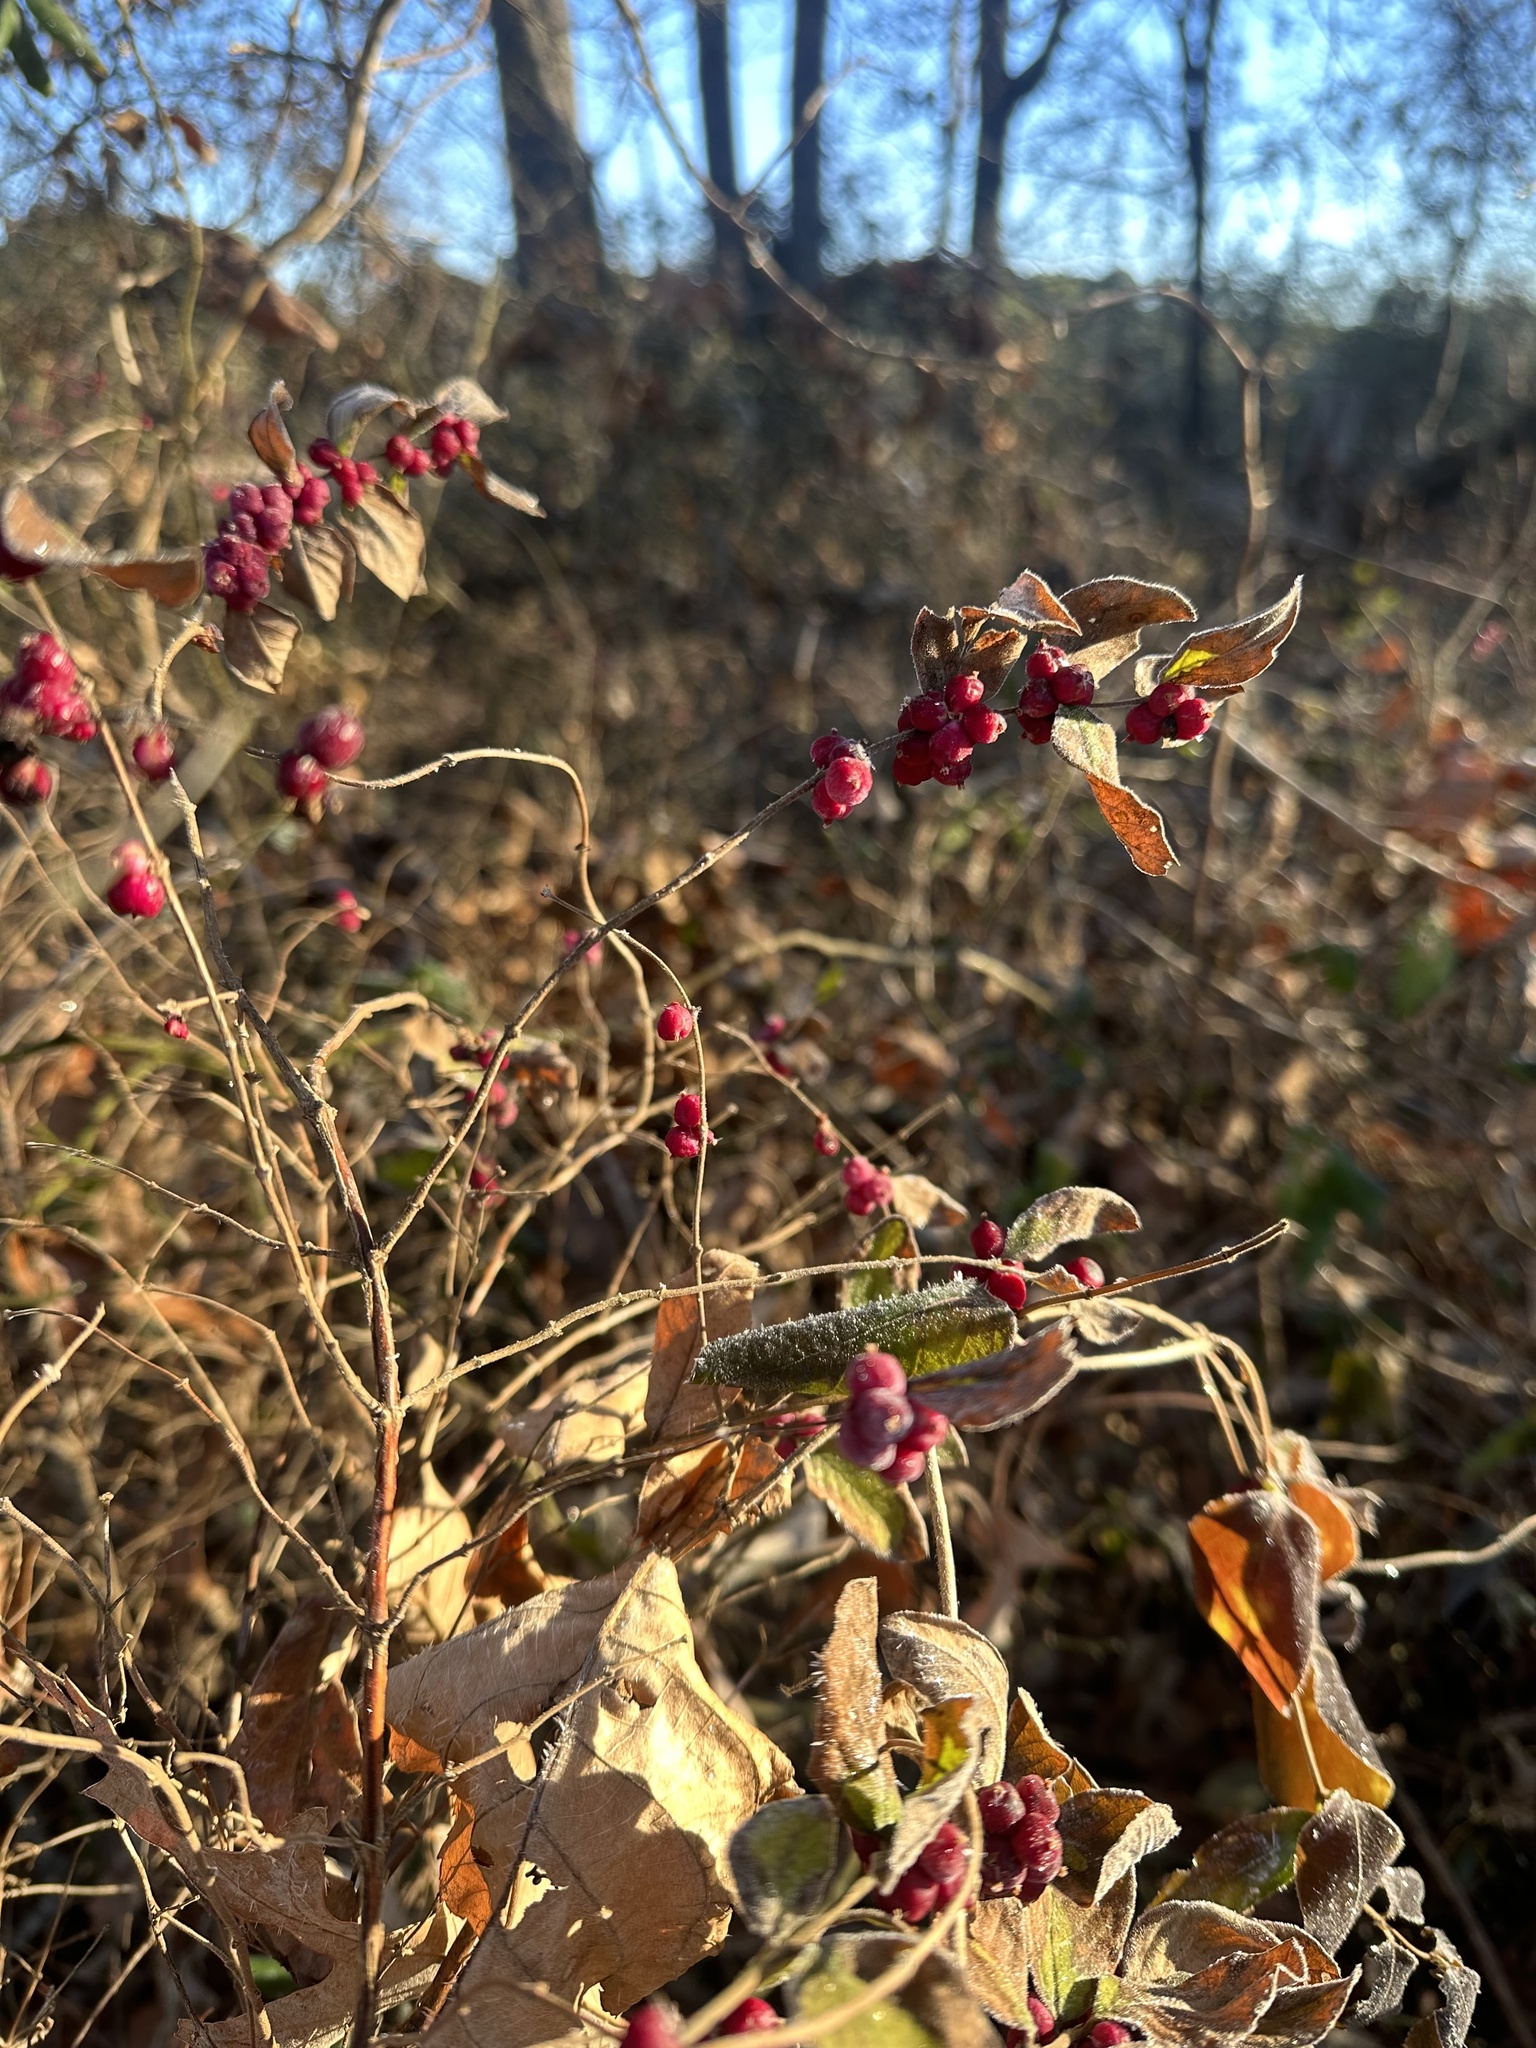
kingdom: Plantae
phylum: Tracheophyta
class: Magnoliopsida
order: Dipsacales
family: Caprifoliaceae
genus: Symphoricarpos
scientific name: Symphoricarpos orbiculatus
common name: Coralberry
